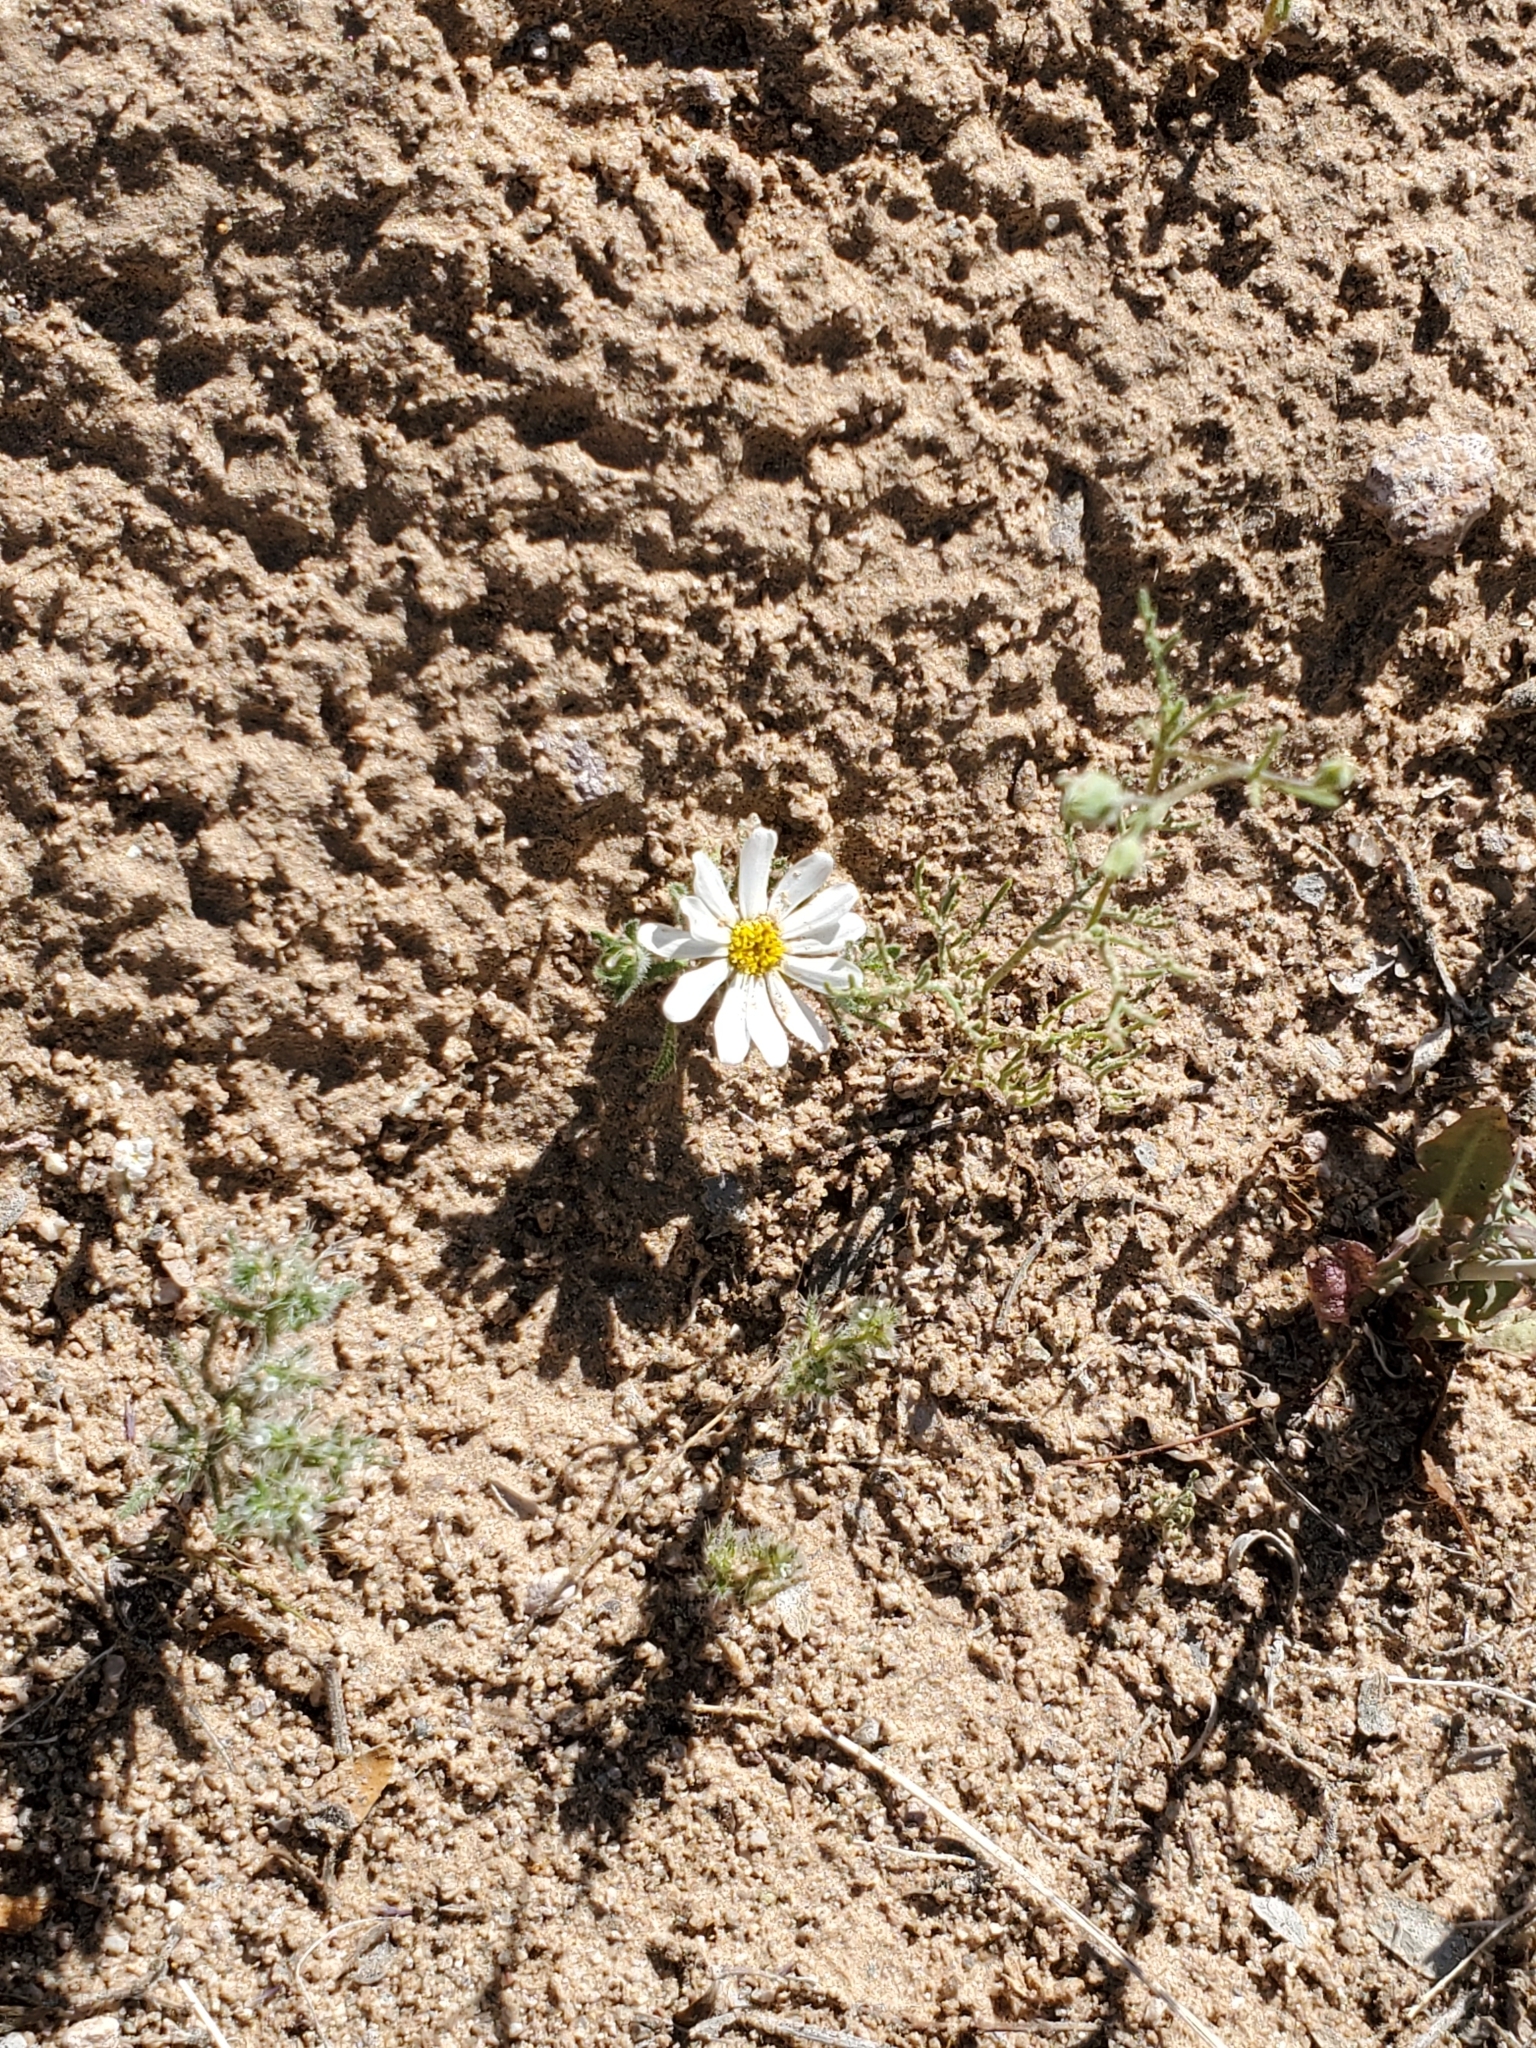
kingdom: Plantae
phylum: Tracheophyta
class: Magnoliopsida
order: Asterales
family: Asteraceae
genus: Monoptilon
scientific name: Monoptilon bellioides
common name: Bristly desertstar
